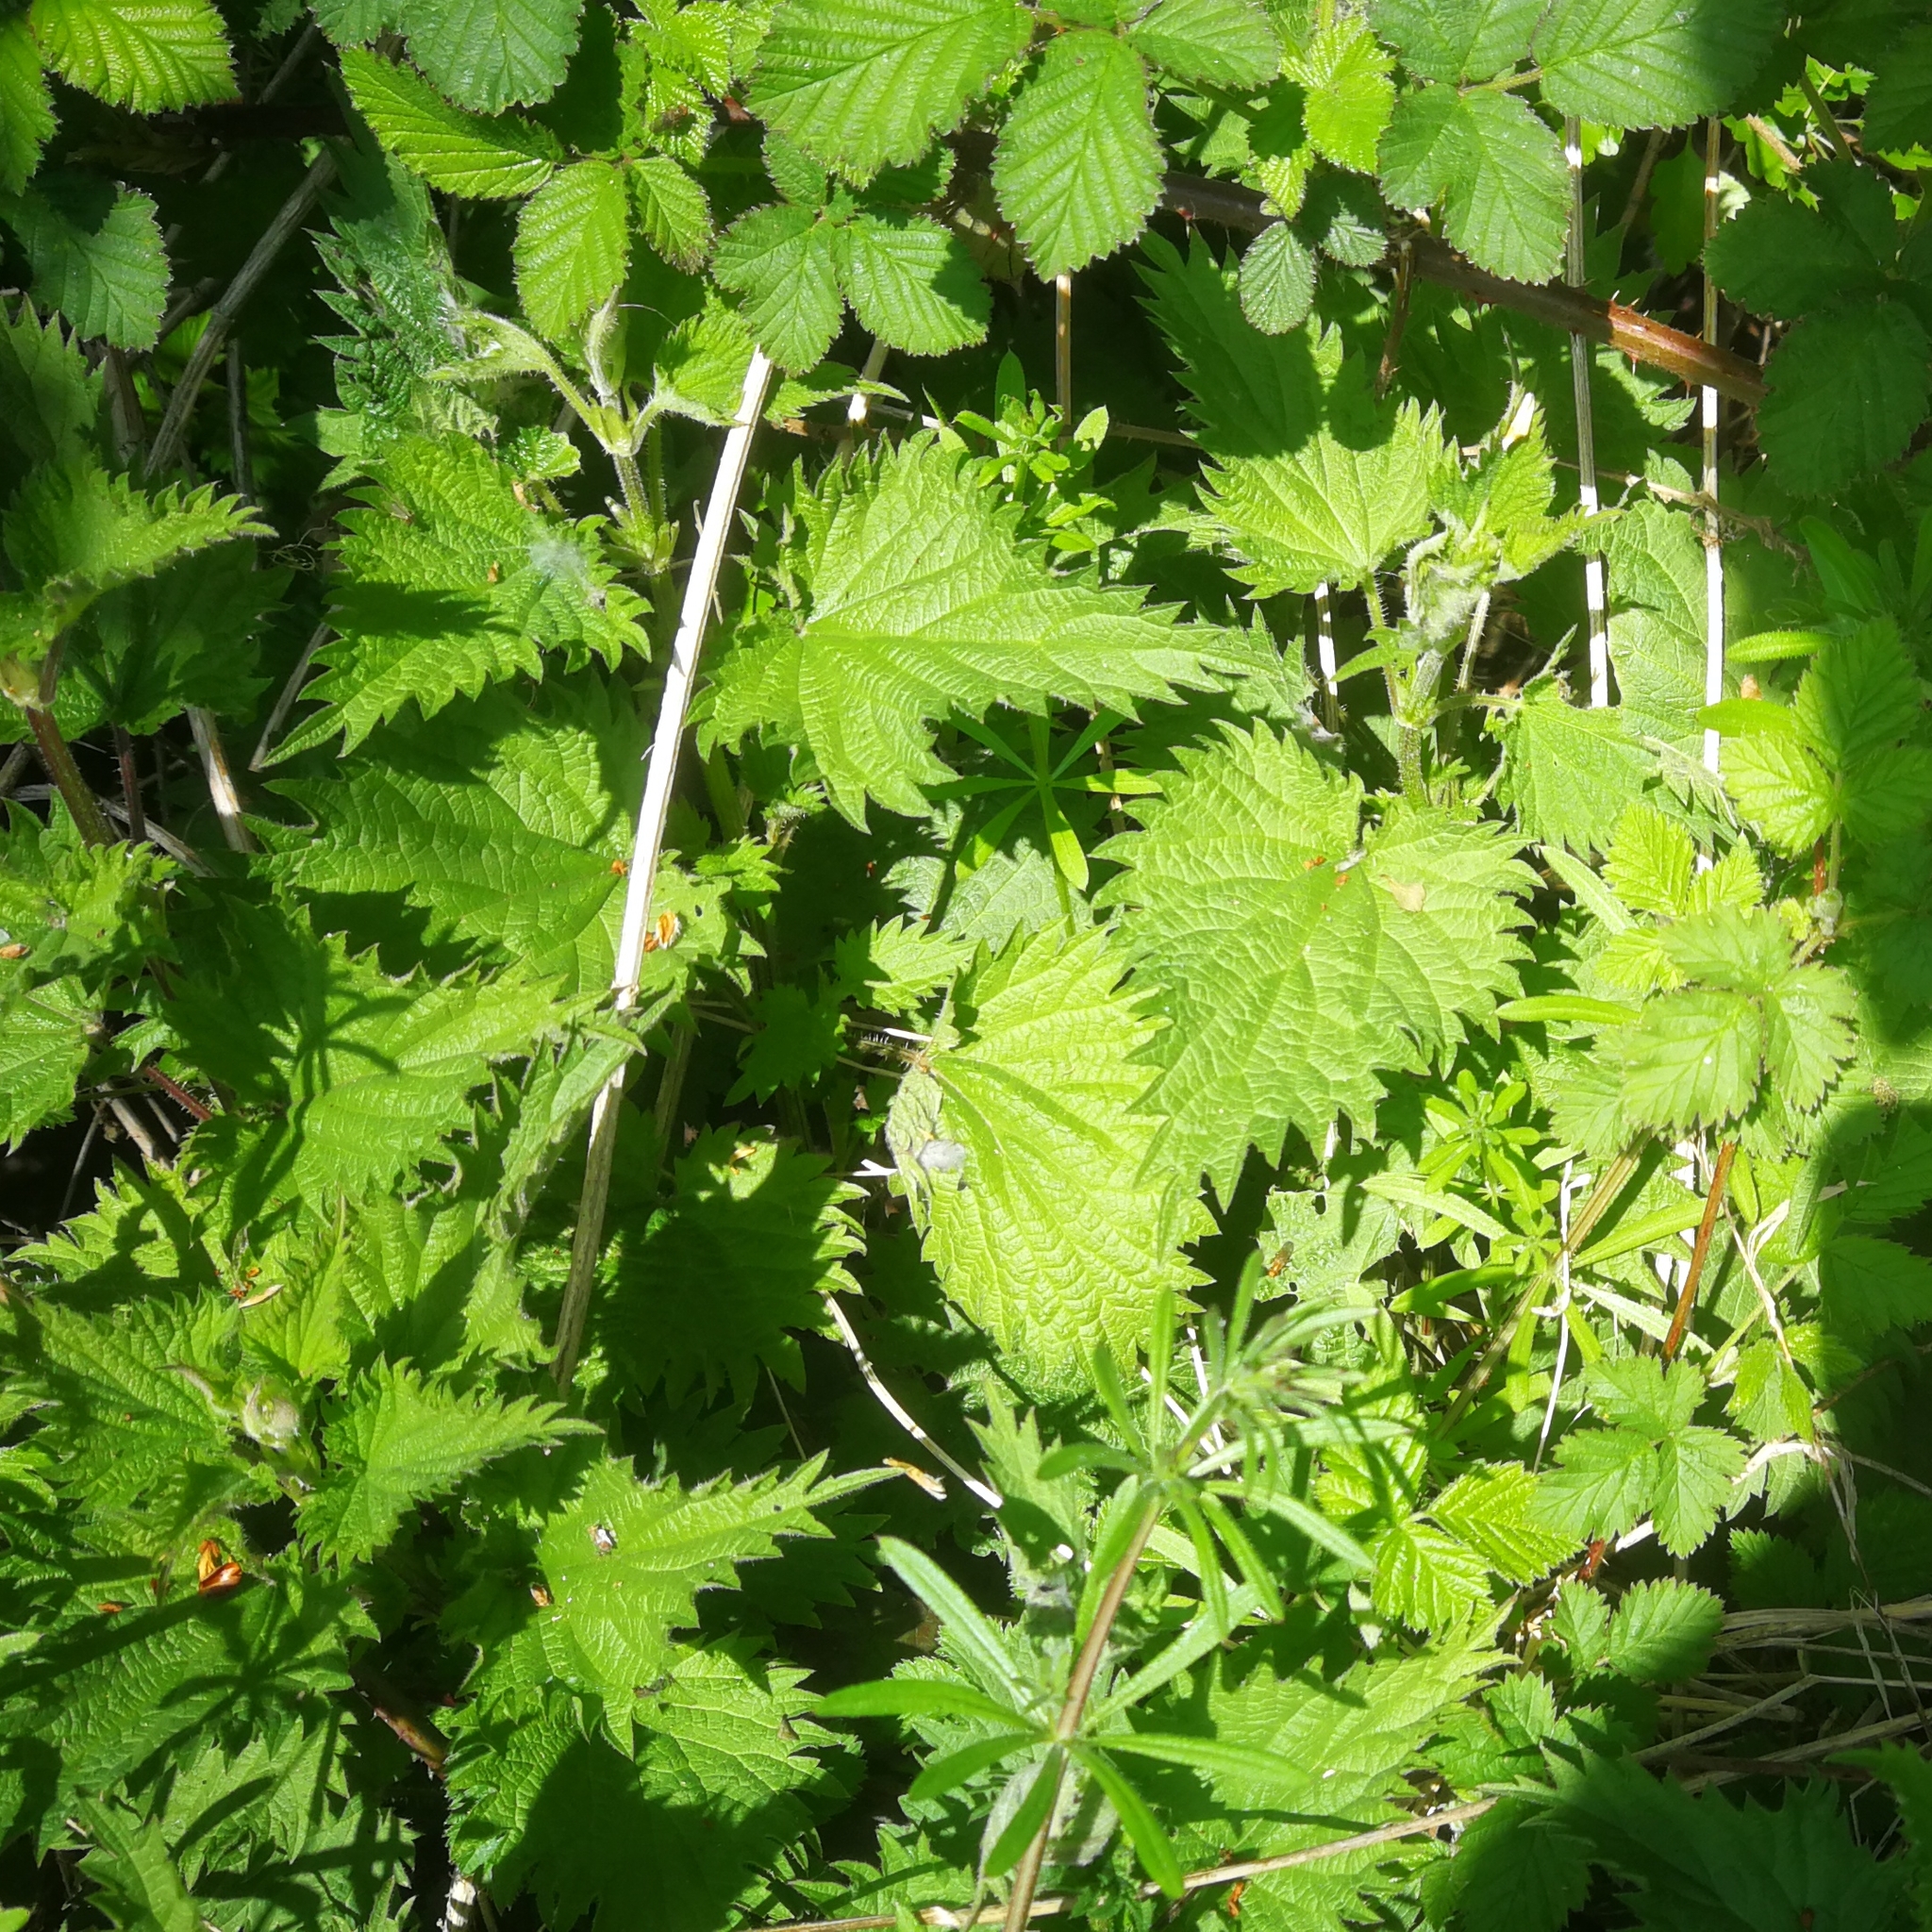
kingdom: Plantae
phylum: Tracheophyta
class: Magnoliopsida
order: Rosales
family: Urticaceae
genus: Urtica
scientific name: Urtica dioica
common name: Common nettle
